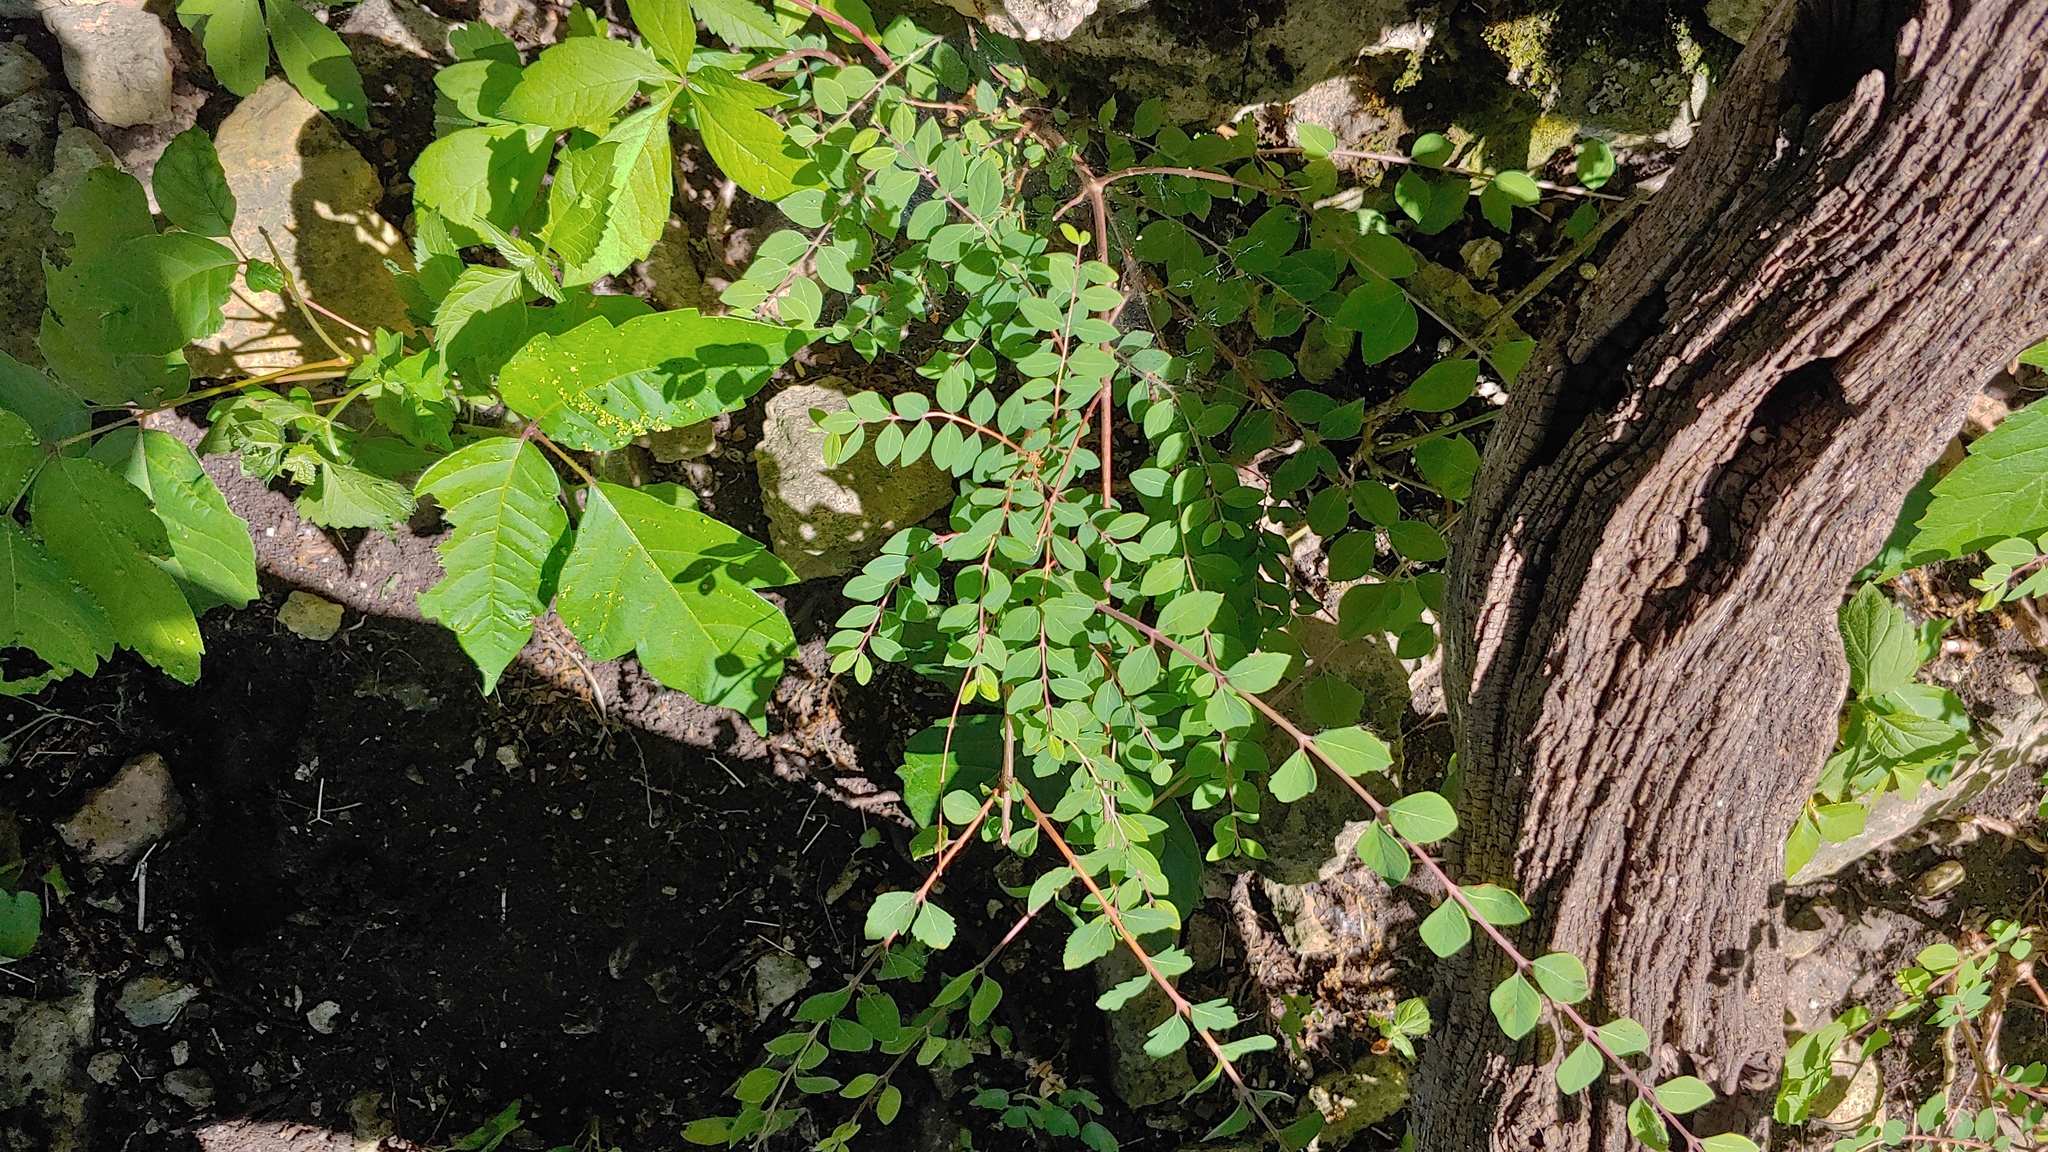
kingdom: Plantae
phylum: Tracheophyta
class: Magnoliopsida
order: Dipsacales
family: Caprifoliaceae
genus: Symphoricarpos
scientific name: Symphoricarpos orbiculatus
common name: Coralberry
